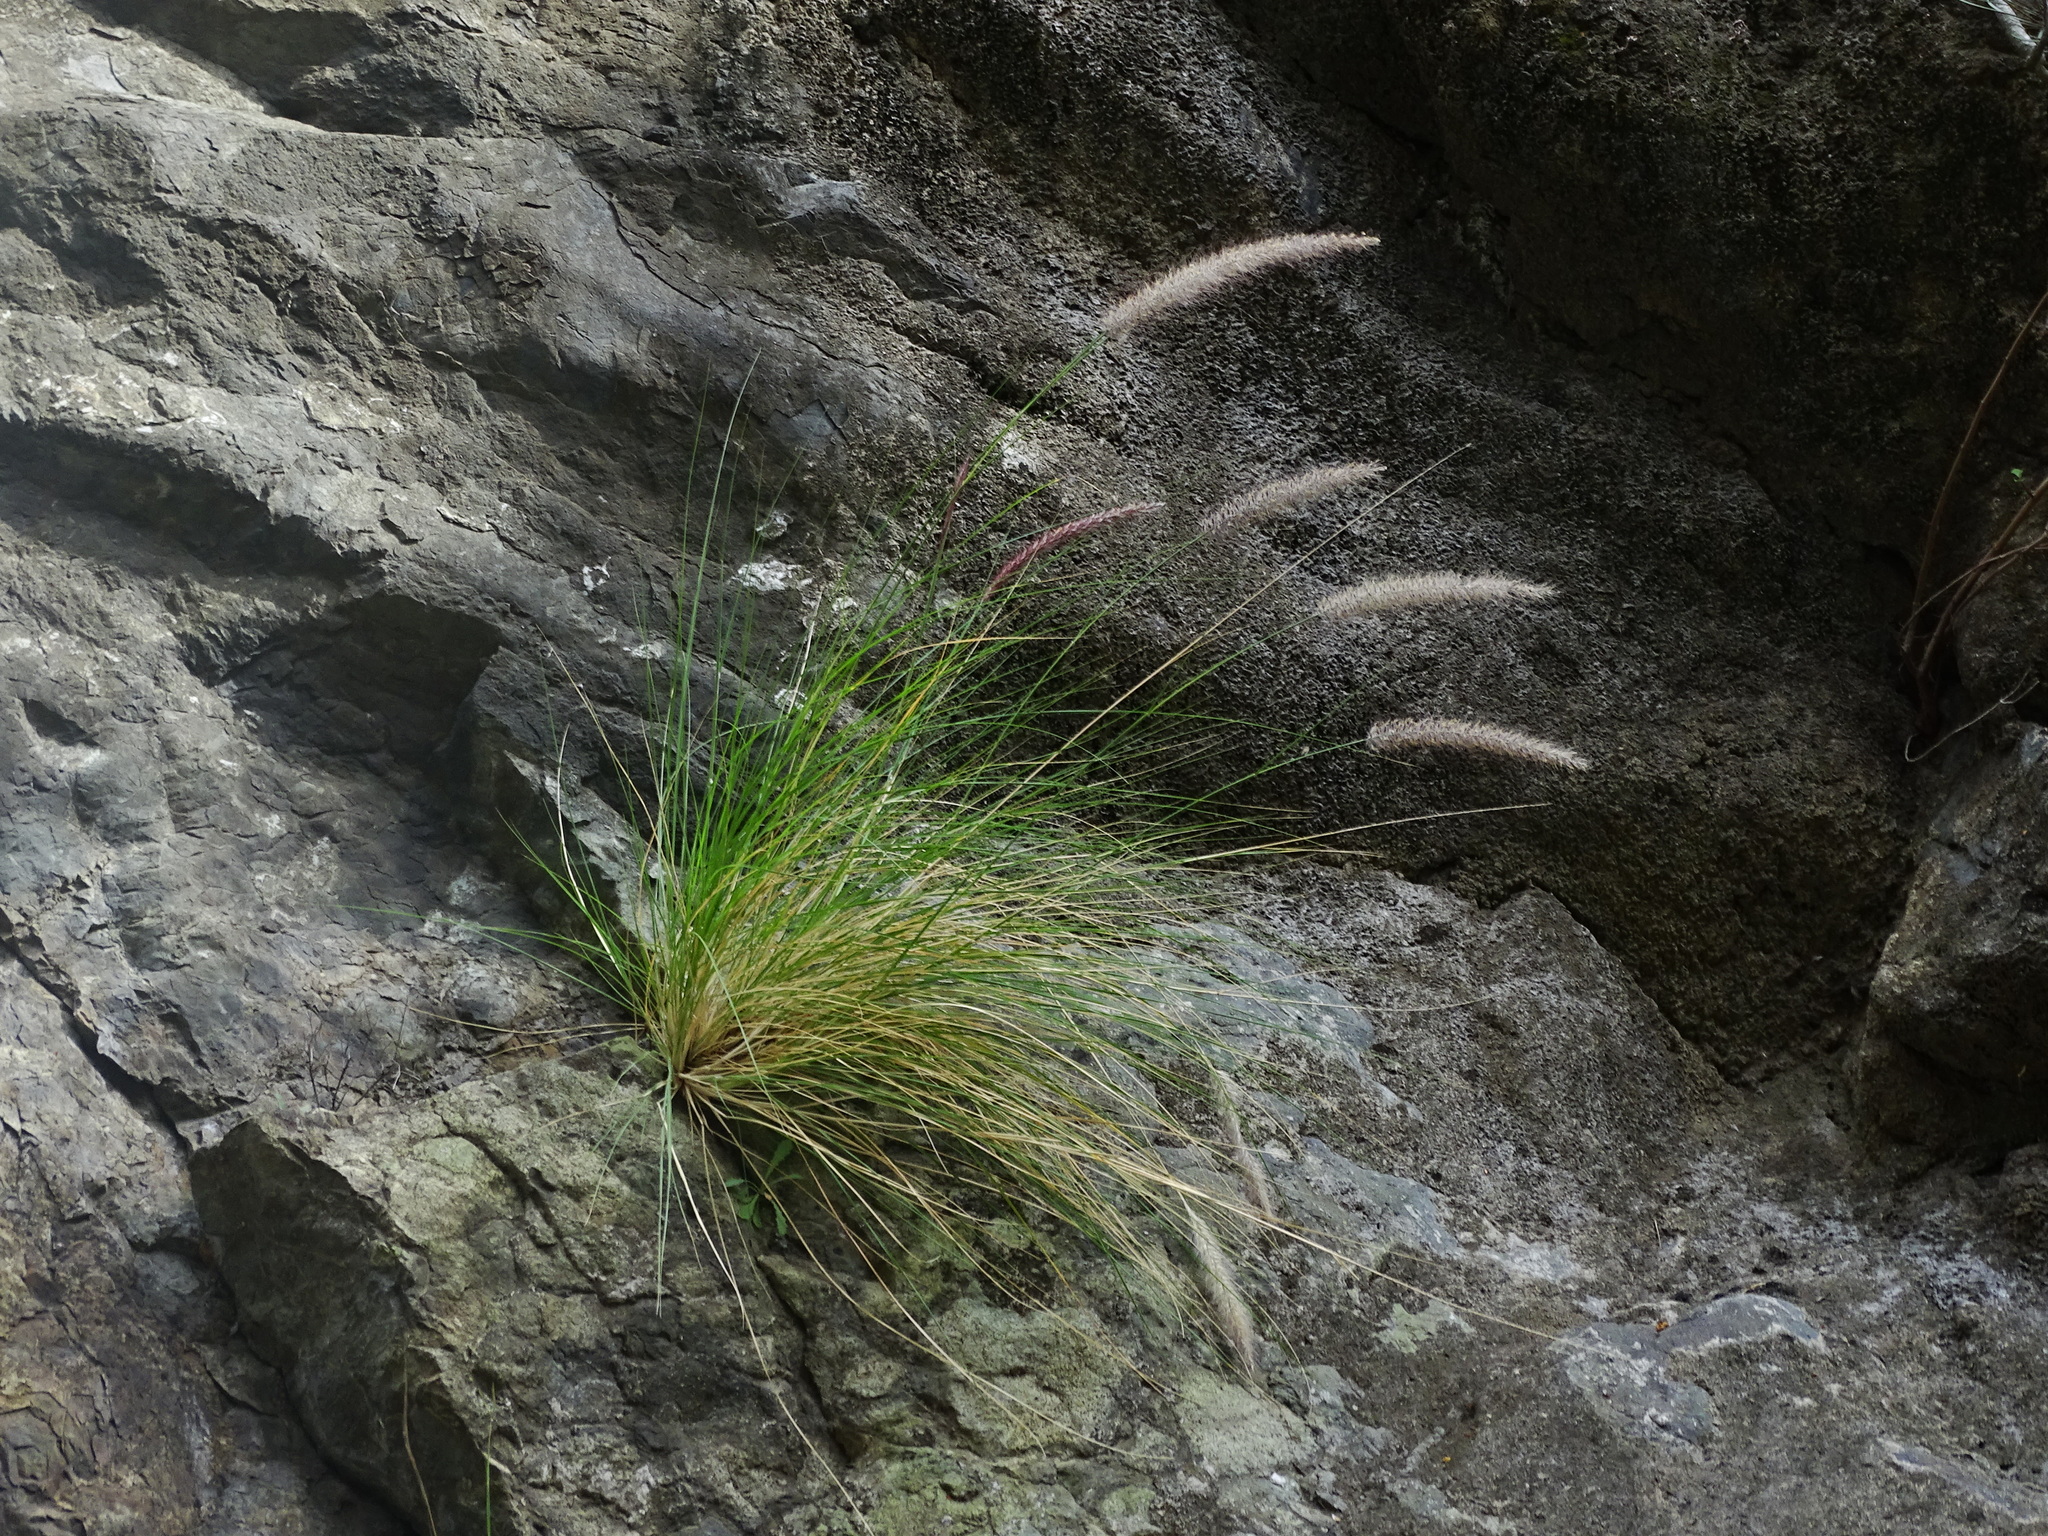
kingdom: Plantae
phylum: Tracheophyta
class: Liliopsida
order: Poales
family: Poaceae
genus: Cenchrus
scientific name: Cenchrus setaceus
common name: Crimson fountaingrass
